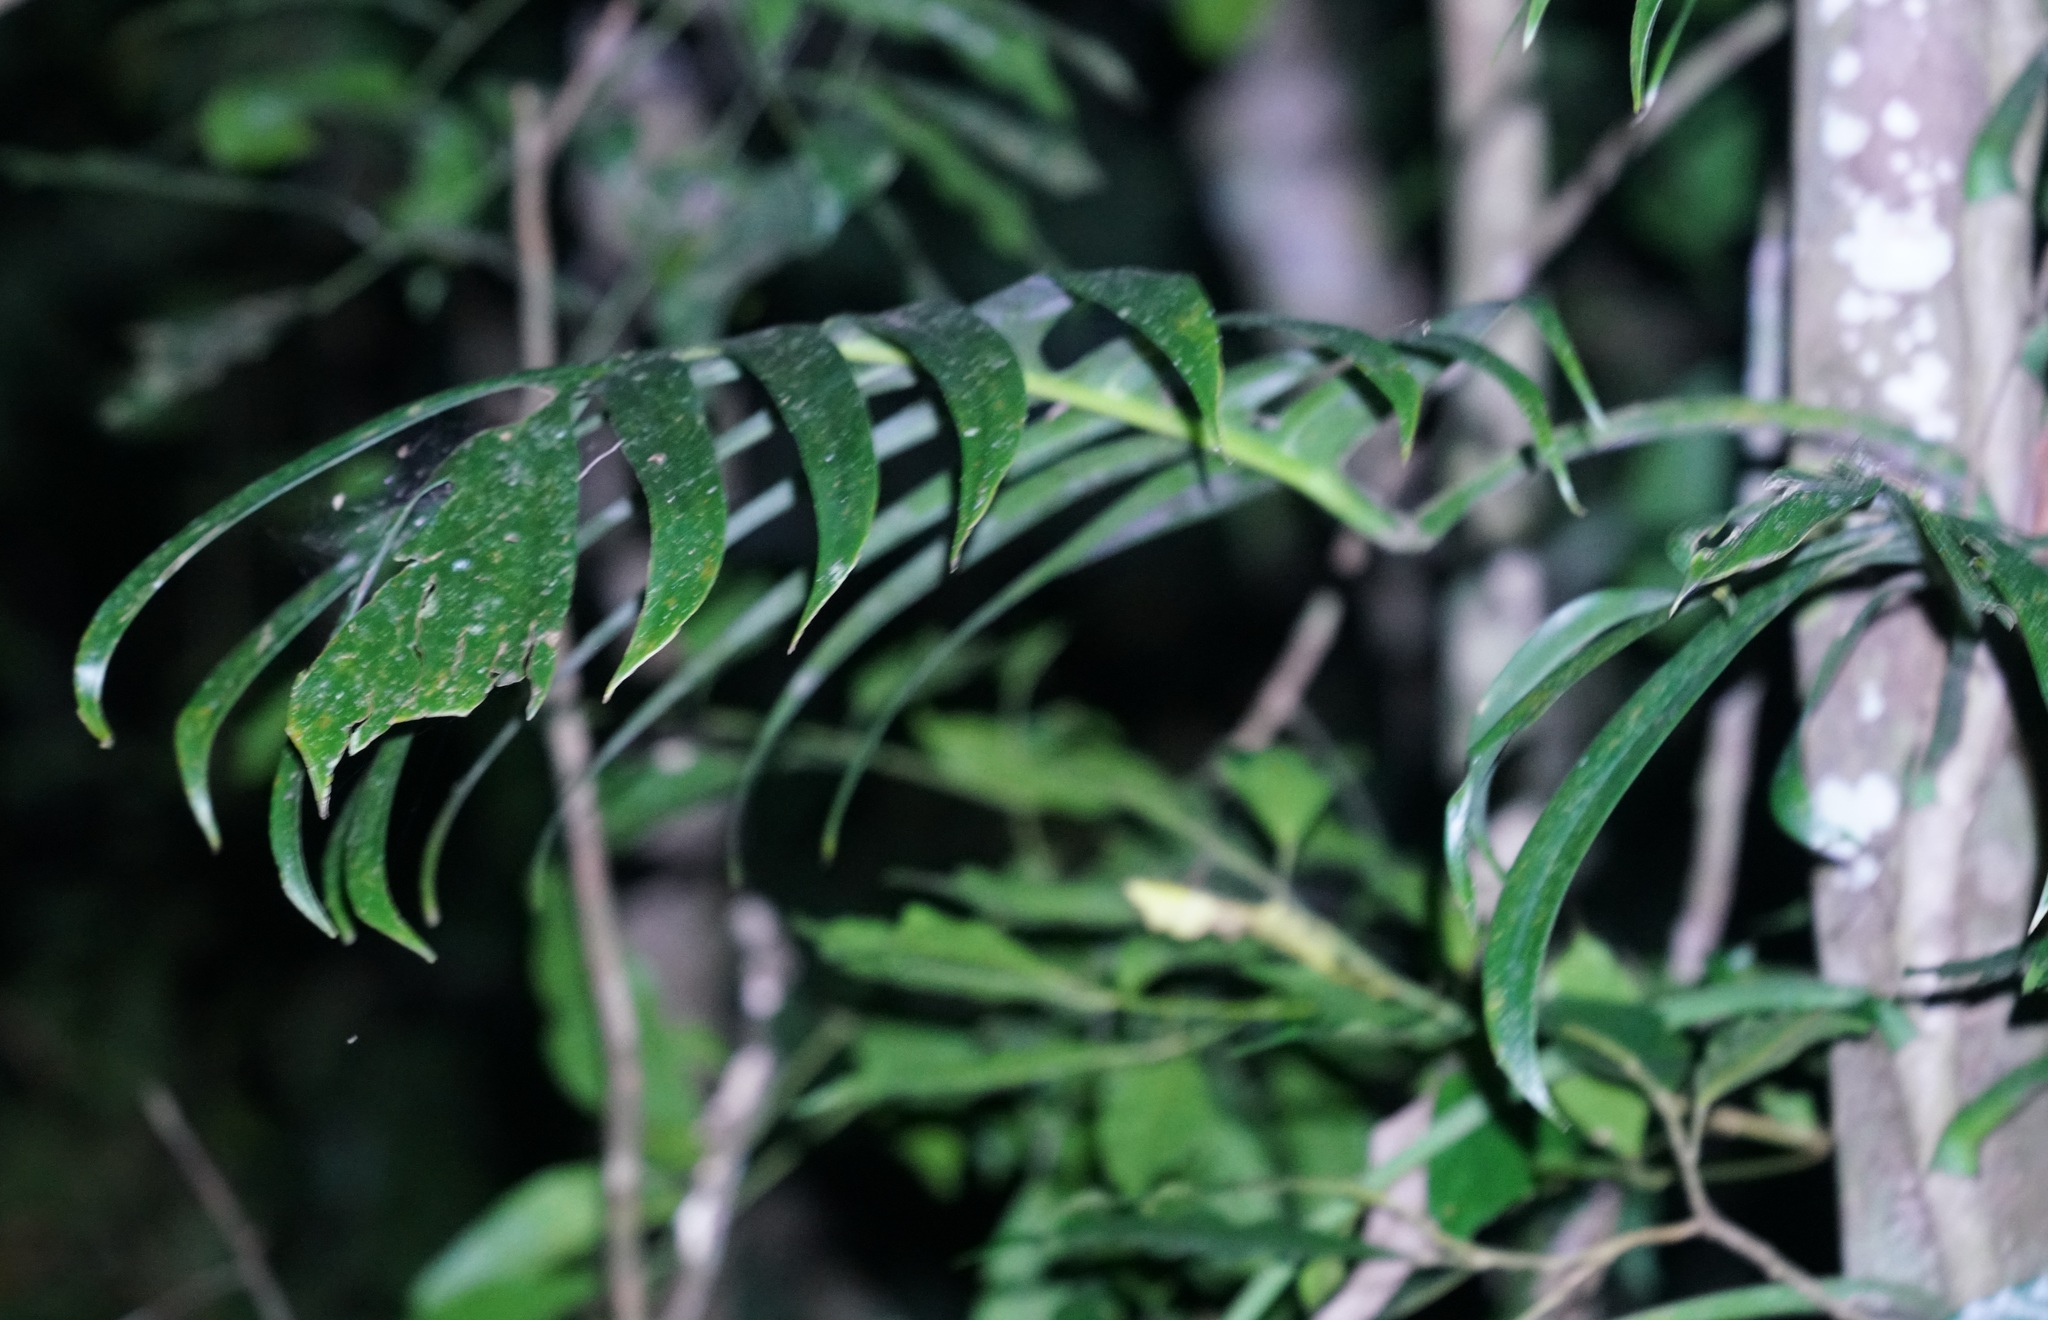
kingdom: Plantae
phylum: Tracheophyta
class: Liliopsida
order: Alismatales
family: Araceae
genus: Epipremnum
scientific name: Epipremnum pinnatum
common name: Centipede tongavine
